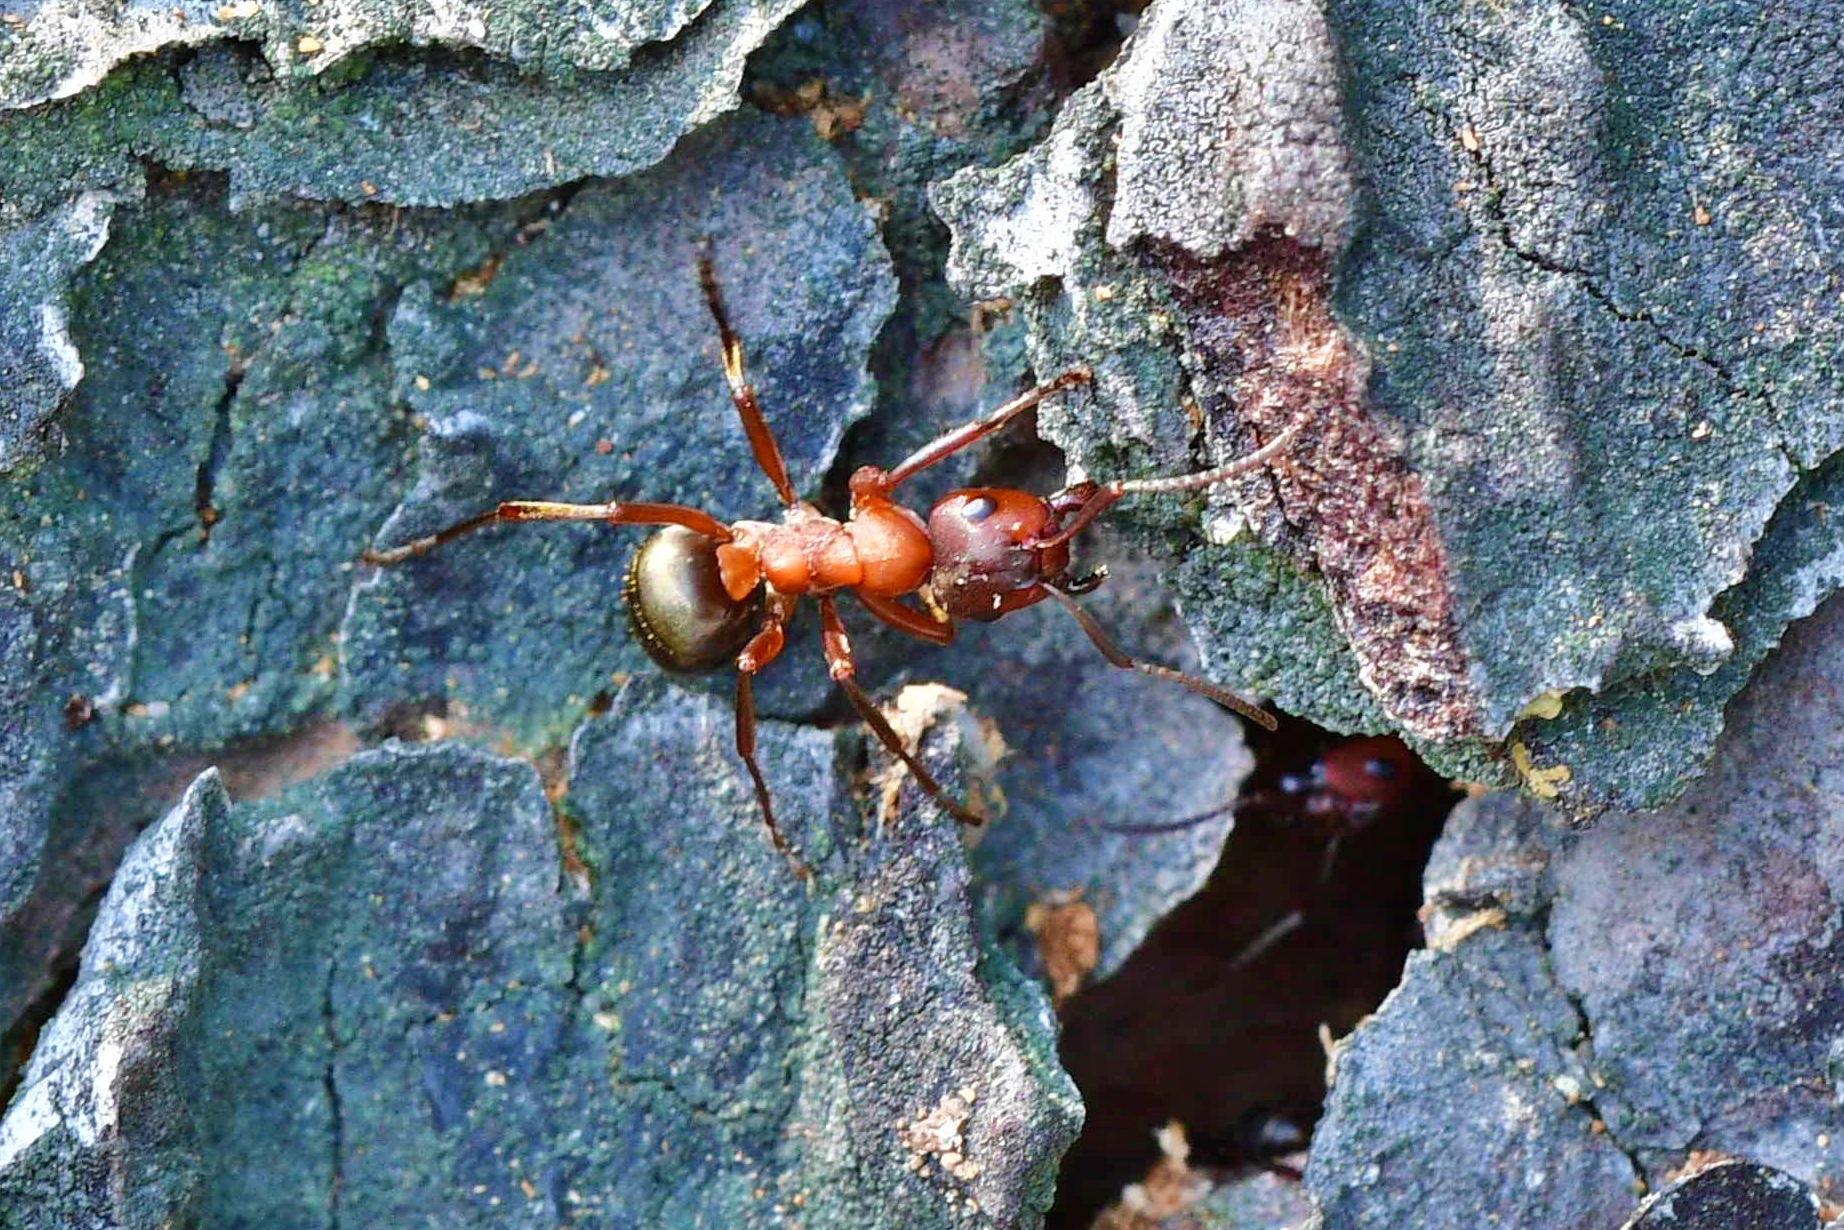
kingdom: Animalia
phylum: Arthropoda
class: Insecta
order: Hymenoptera
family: Formicidae
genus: Formica
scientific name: Formica sanguinea
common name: Blood-red ant
